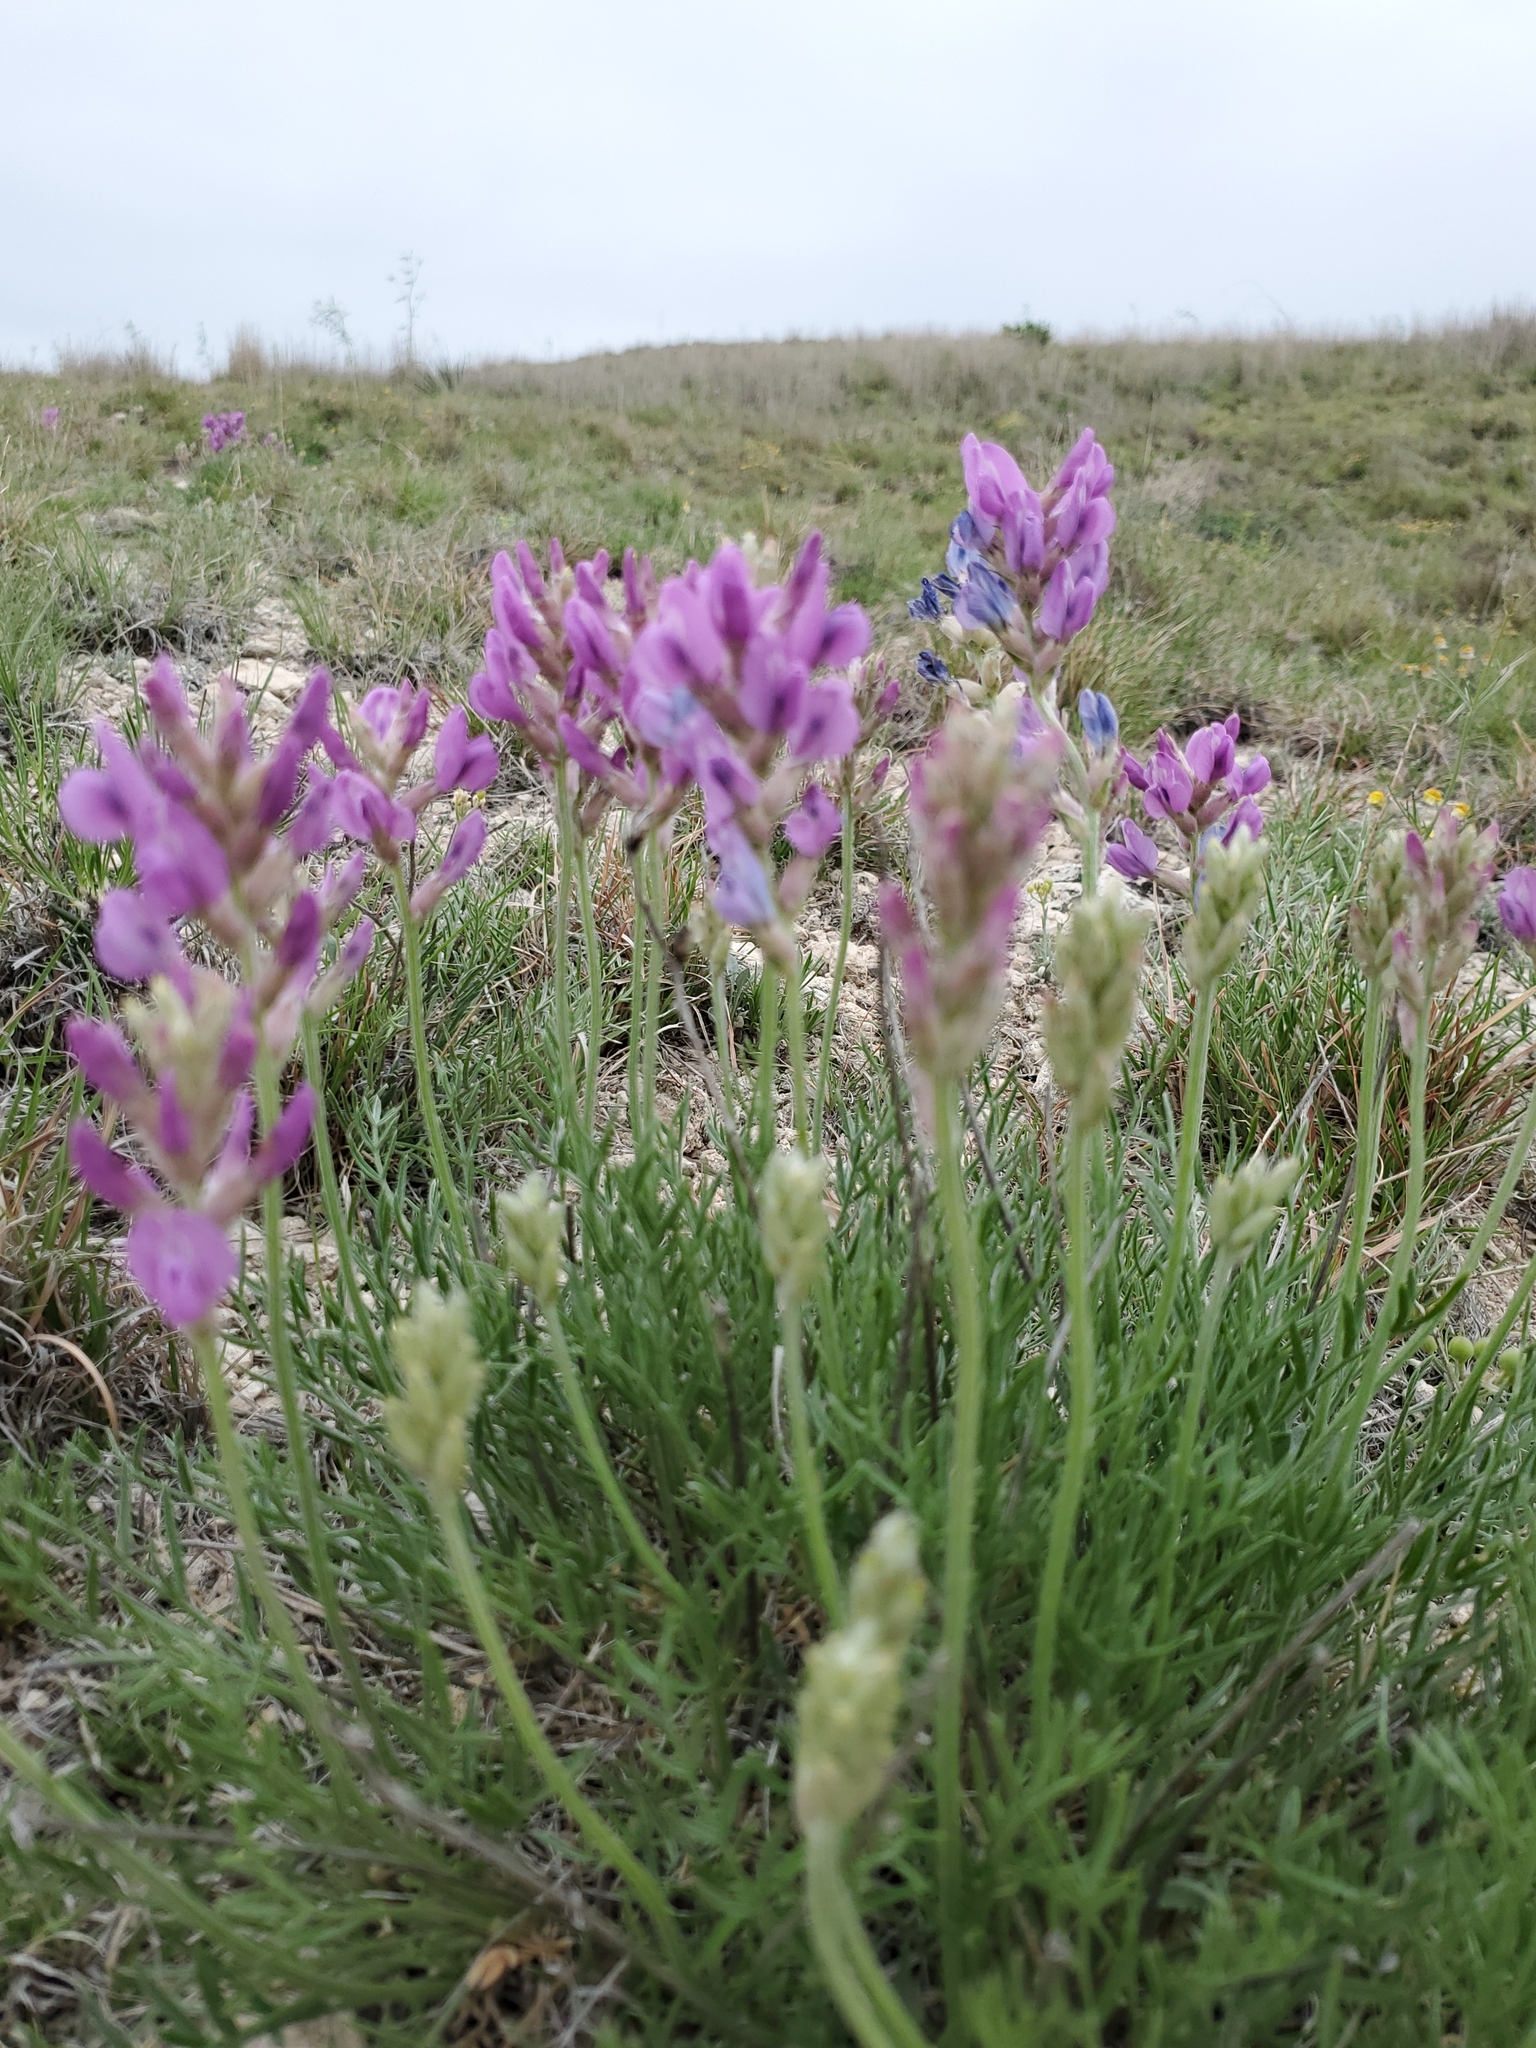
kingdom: Plantae
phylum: Tracheophyta
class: Magnoliopsida
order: Fabales
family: Fabaceae
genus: Oxytropis
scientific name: Oxytropis lambertii
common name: Purple locoweed
